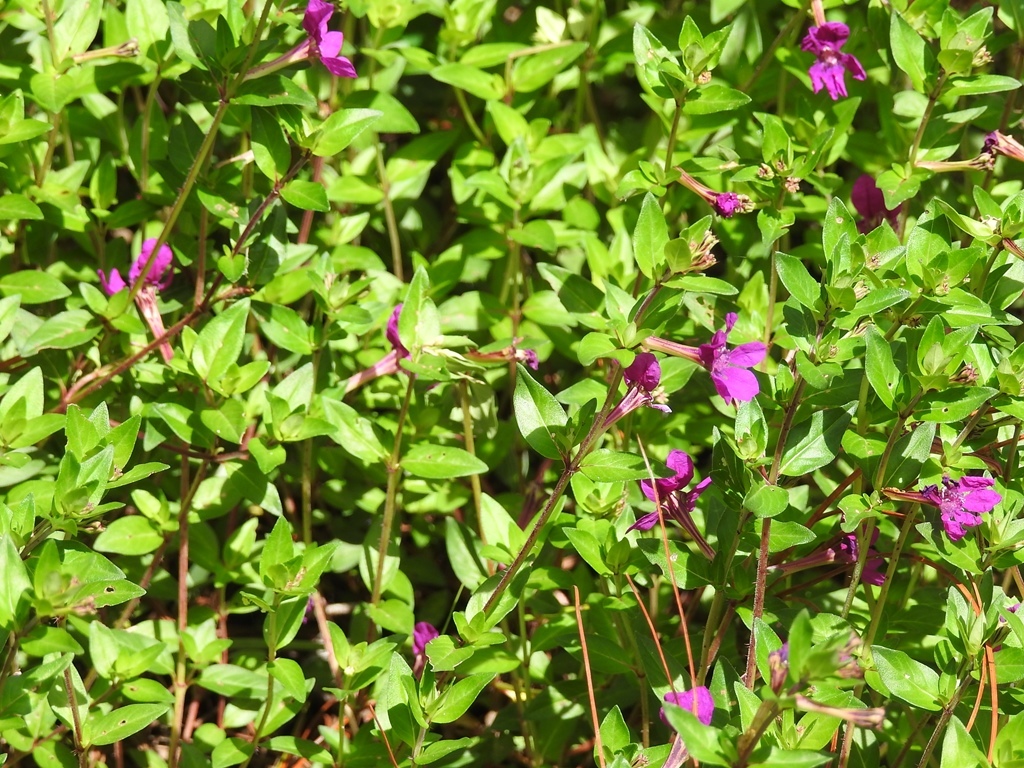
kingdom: Plantae
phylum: Tracheophyta
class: Magnoliopsida
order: Myrtales
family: Lythraceae
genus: Cuphea
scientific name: Cuphea aequipetala
